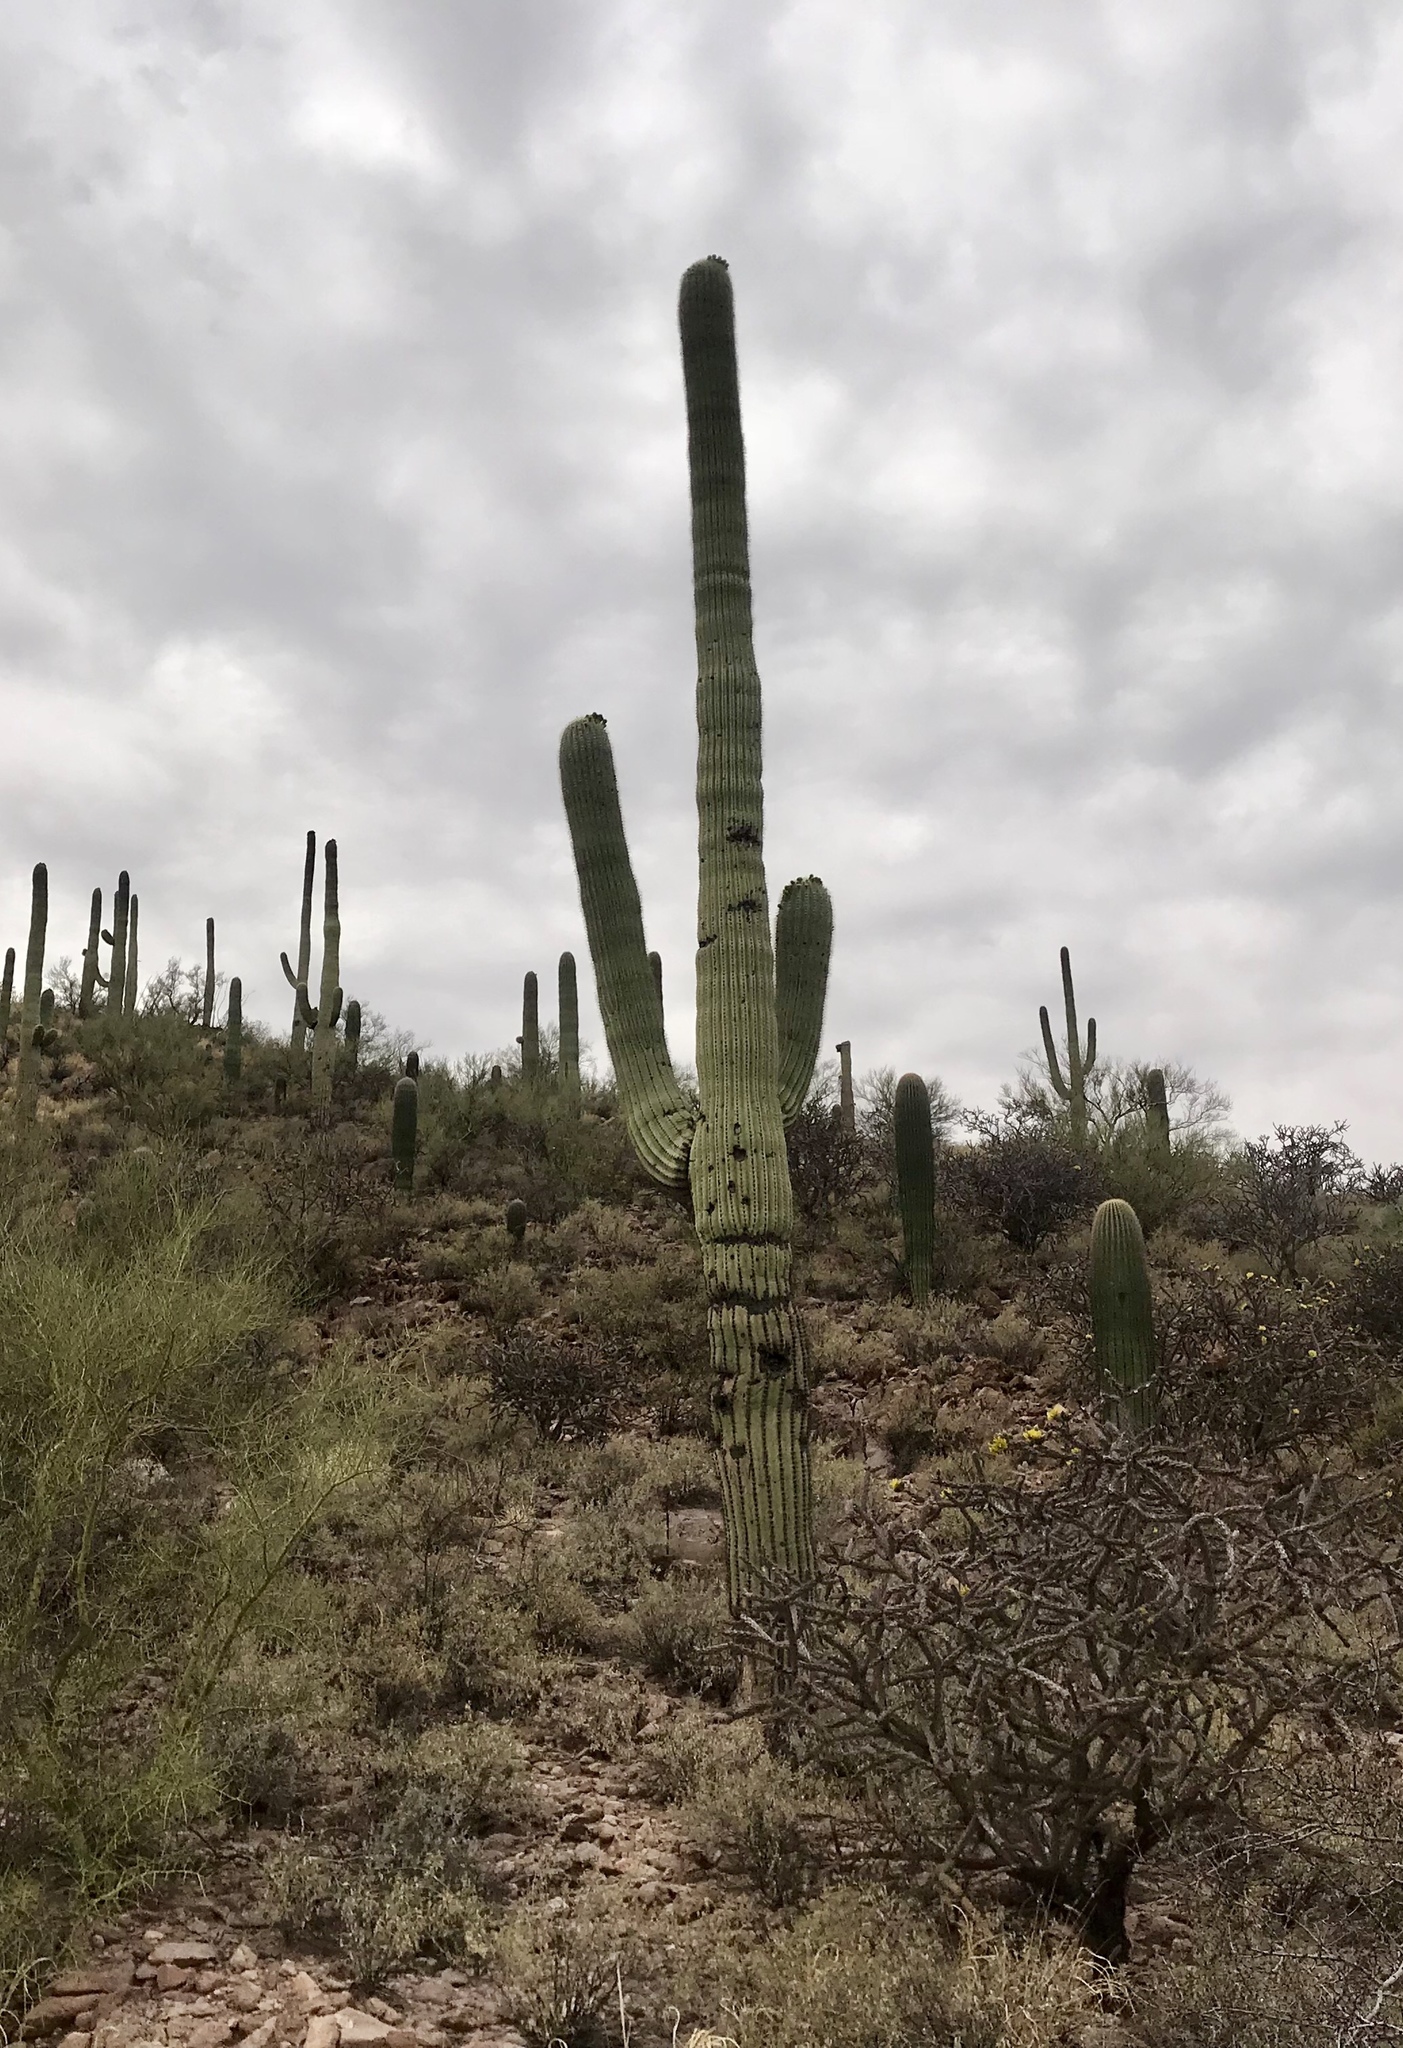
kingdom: Plantae
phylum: Tracheophyta
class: Magnoliopsida
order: Caryophyllales
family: Cactaceae
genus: Carnegiea
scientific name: Carnegiea gigantea
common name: Saguaro
